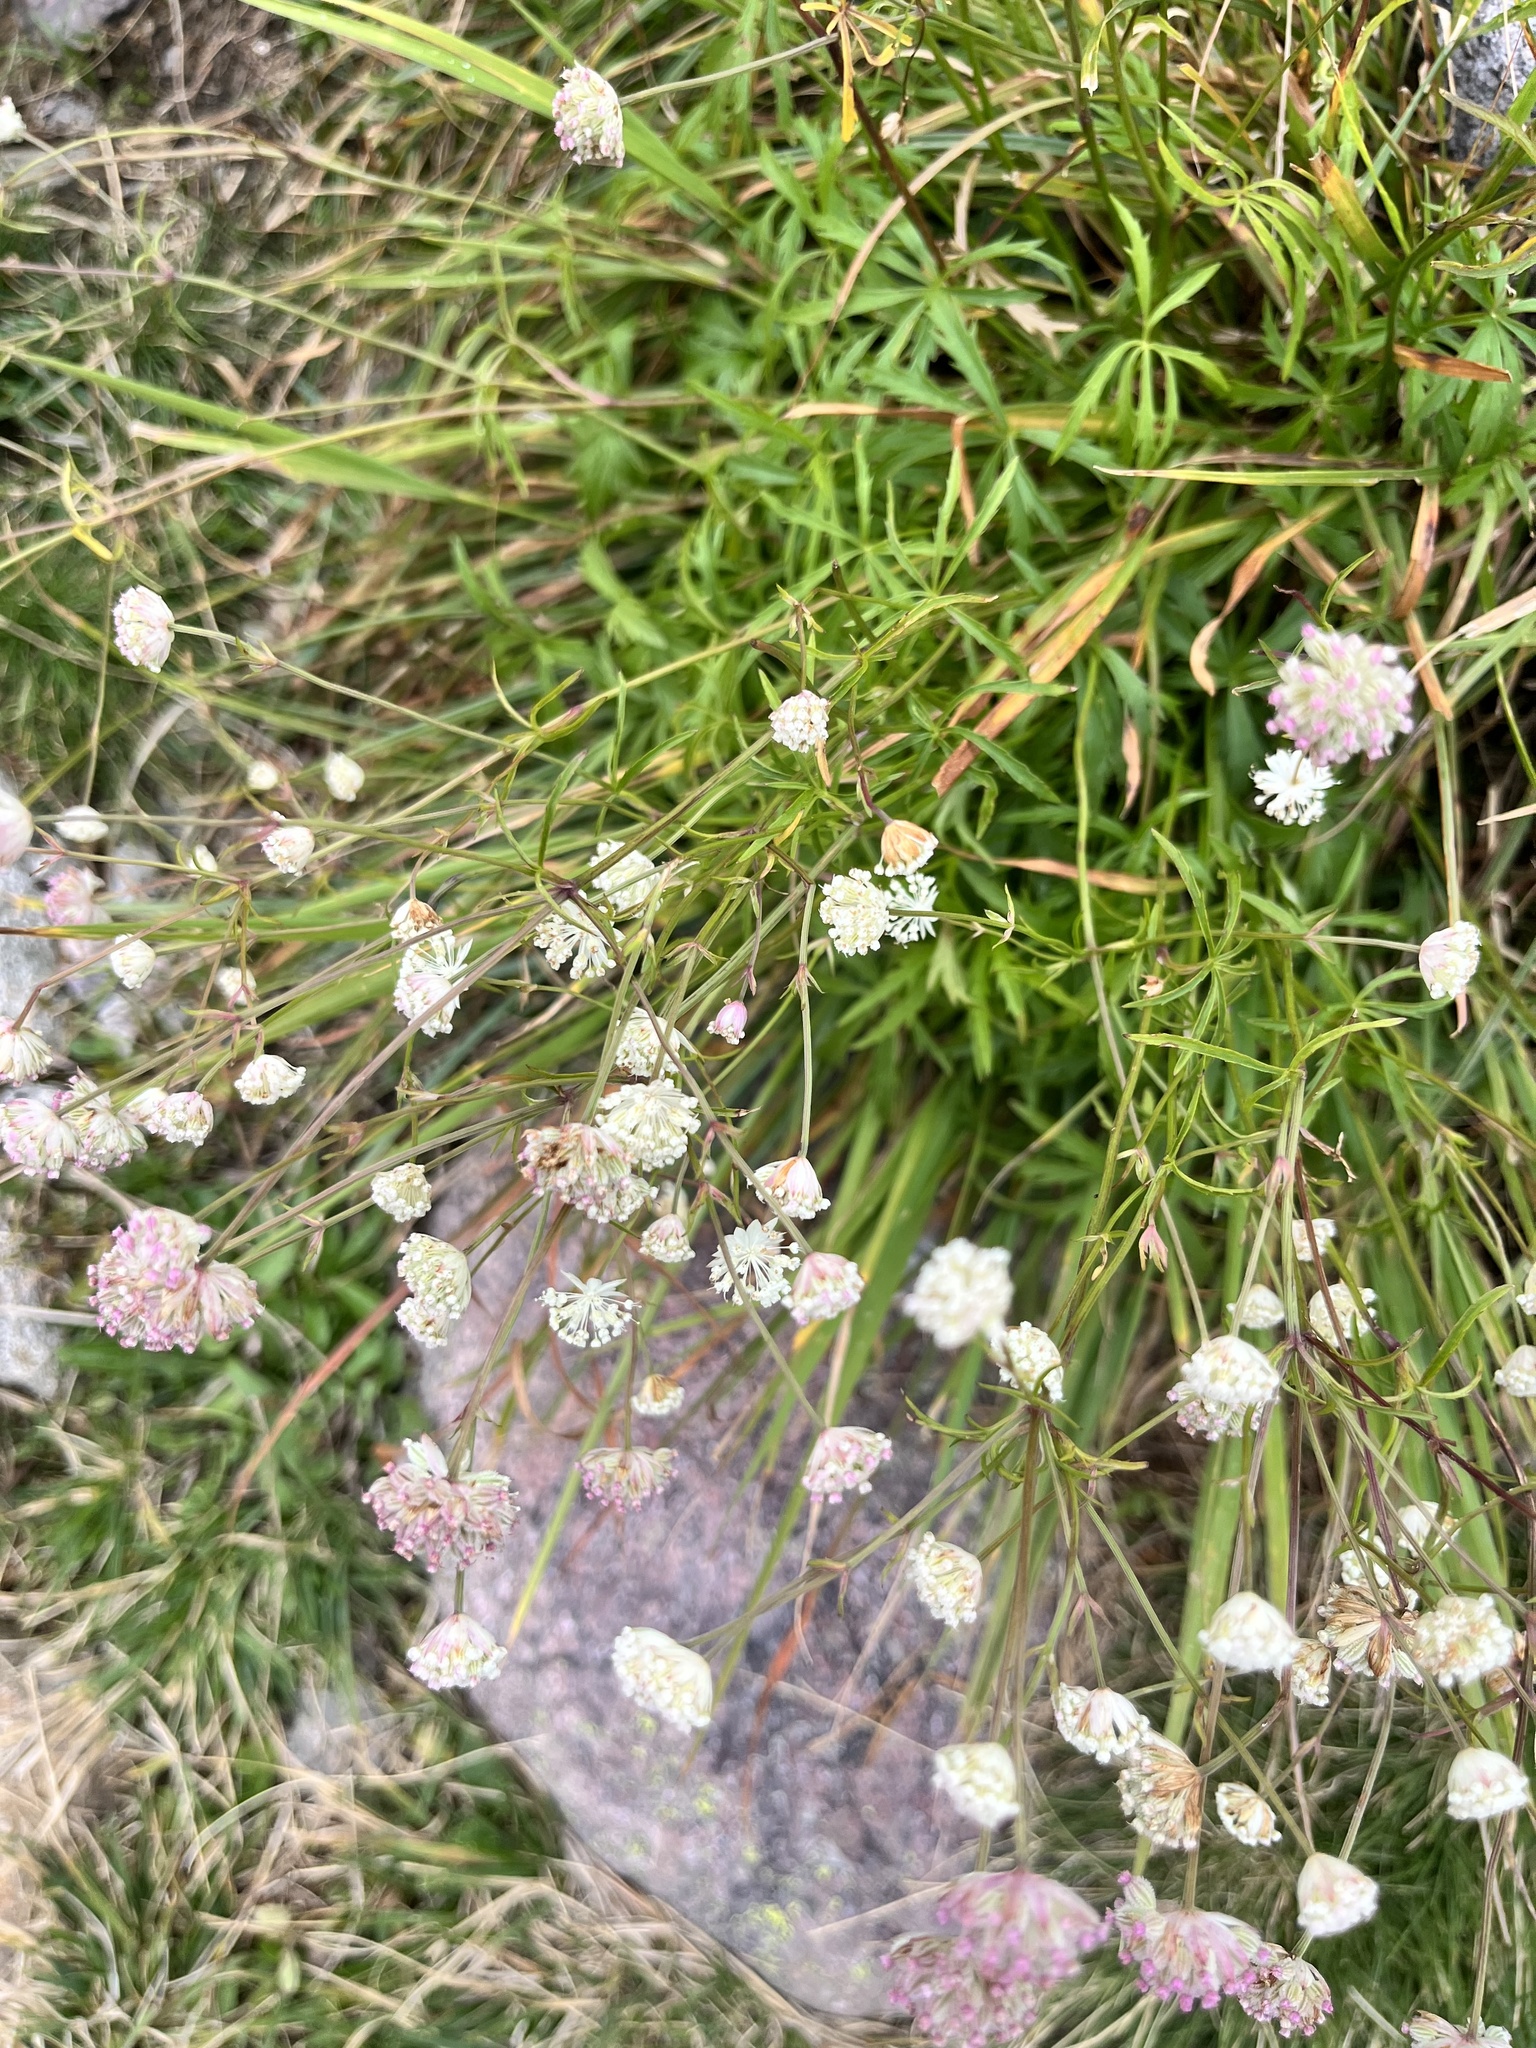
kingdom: Plantae
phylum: Tracheophyta
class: Magnoliopsida
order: Apiales
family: Apiaceae
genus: Astrantia
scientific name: Astrantia minor
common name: Lesser masterwort
